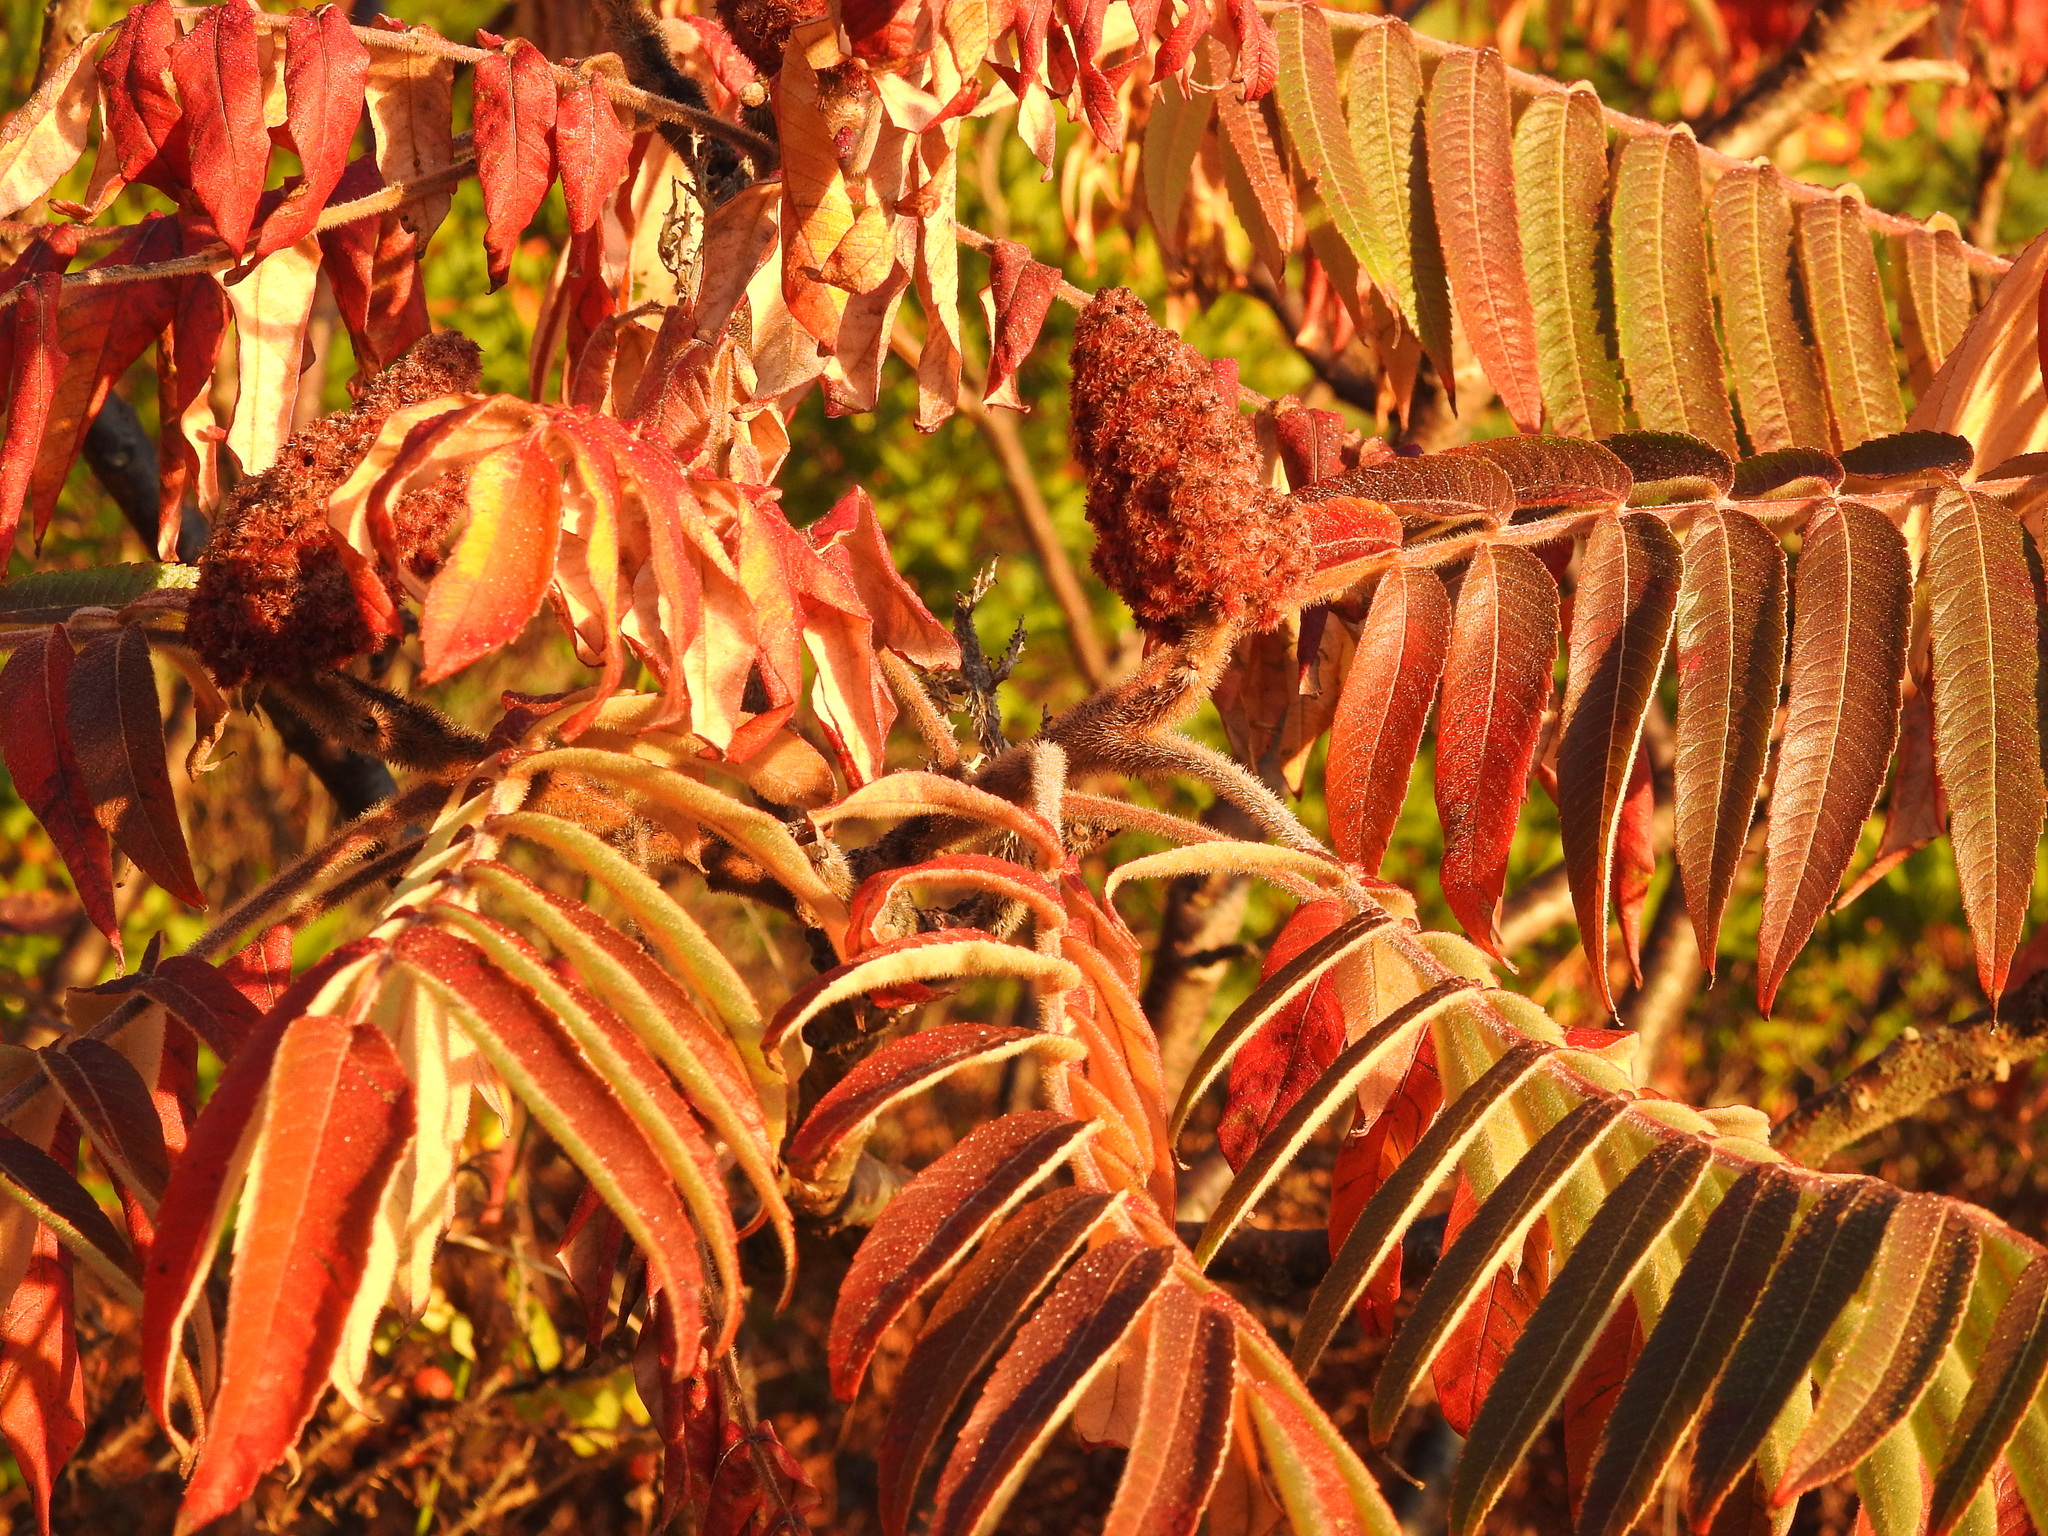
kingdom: Plantae
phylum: Tracheophyta
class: Magnoliopsida
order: Sapindales
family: Anacardiaceae
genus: Rhus
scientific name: Rhus typhina
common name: Staghorn sumac
